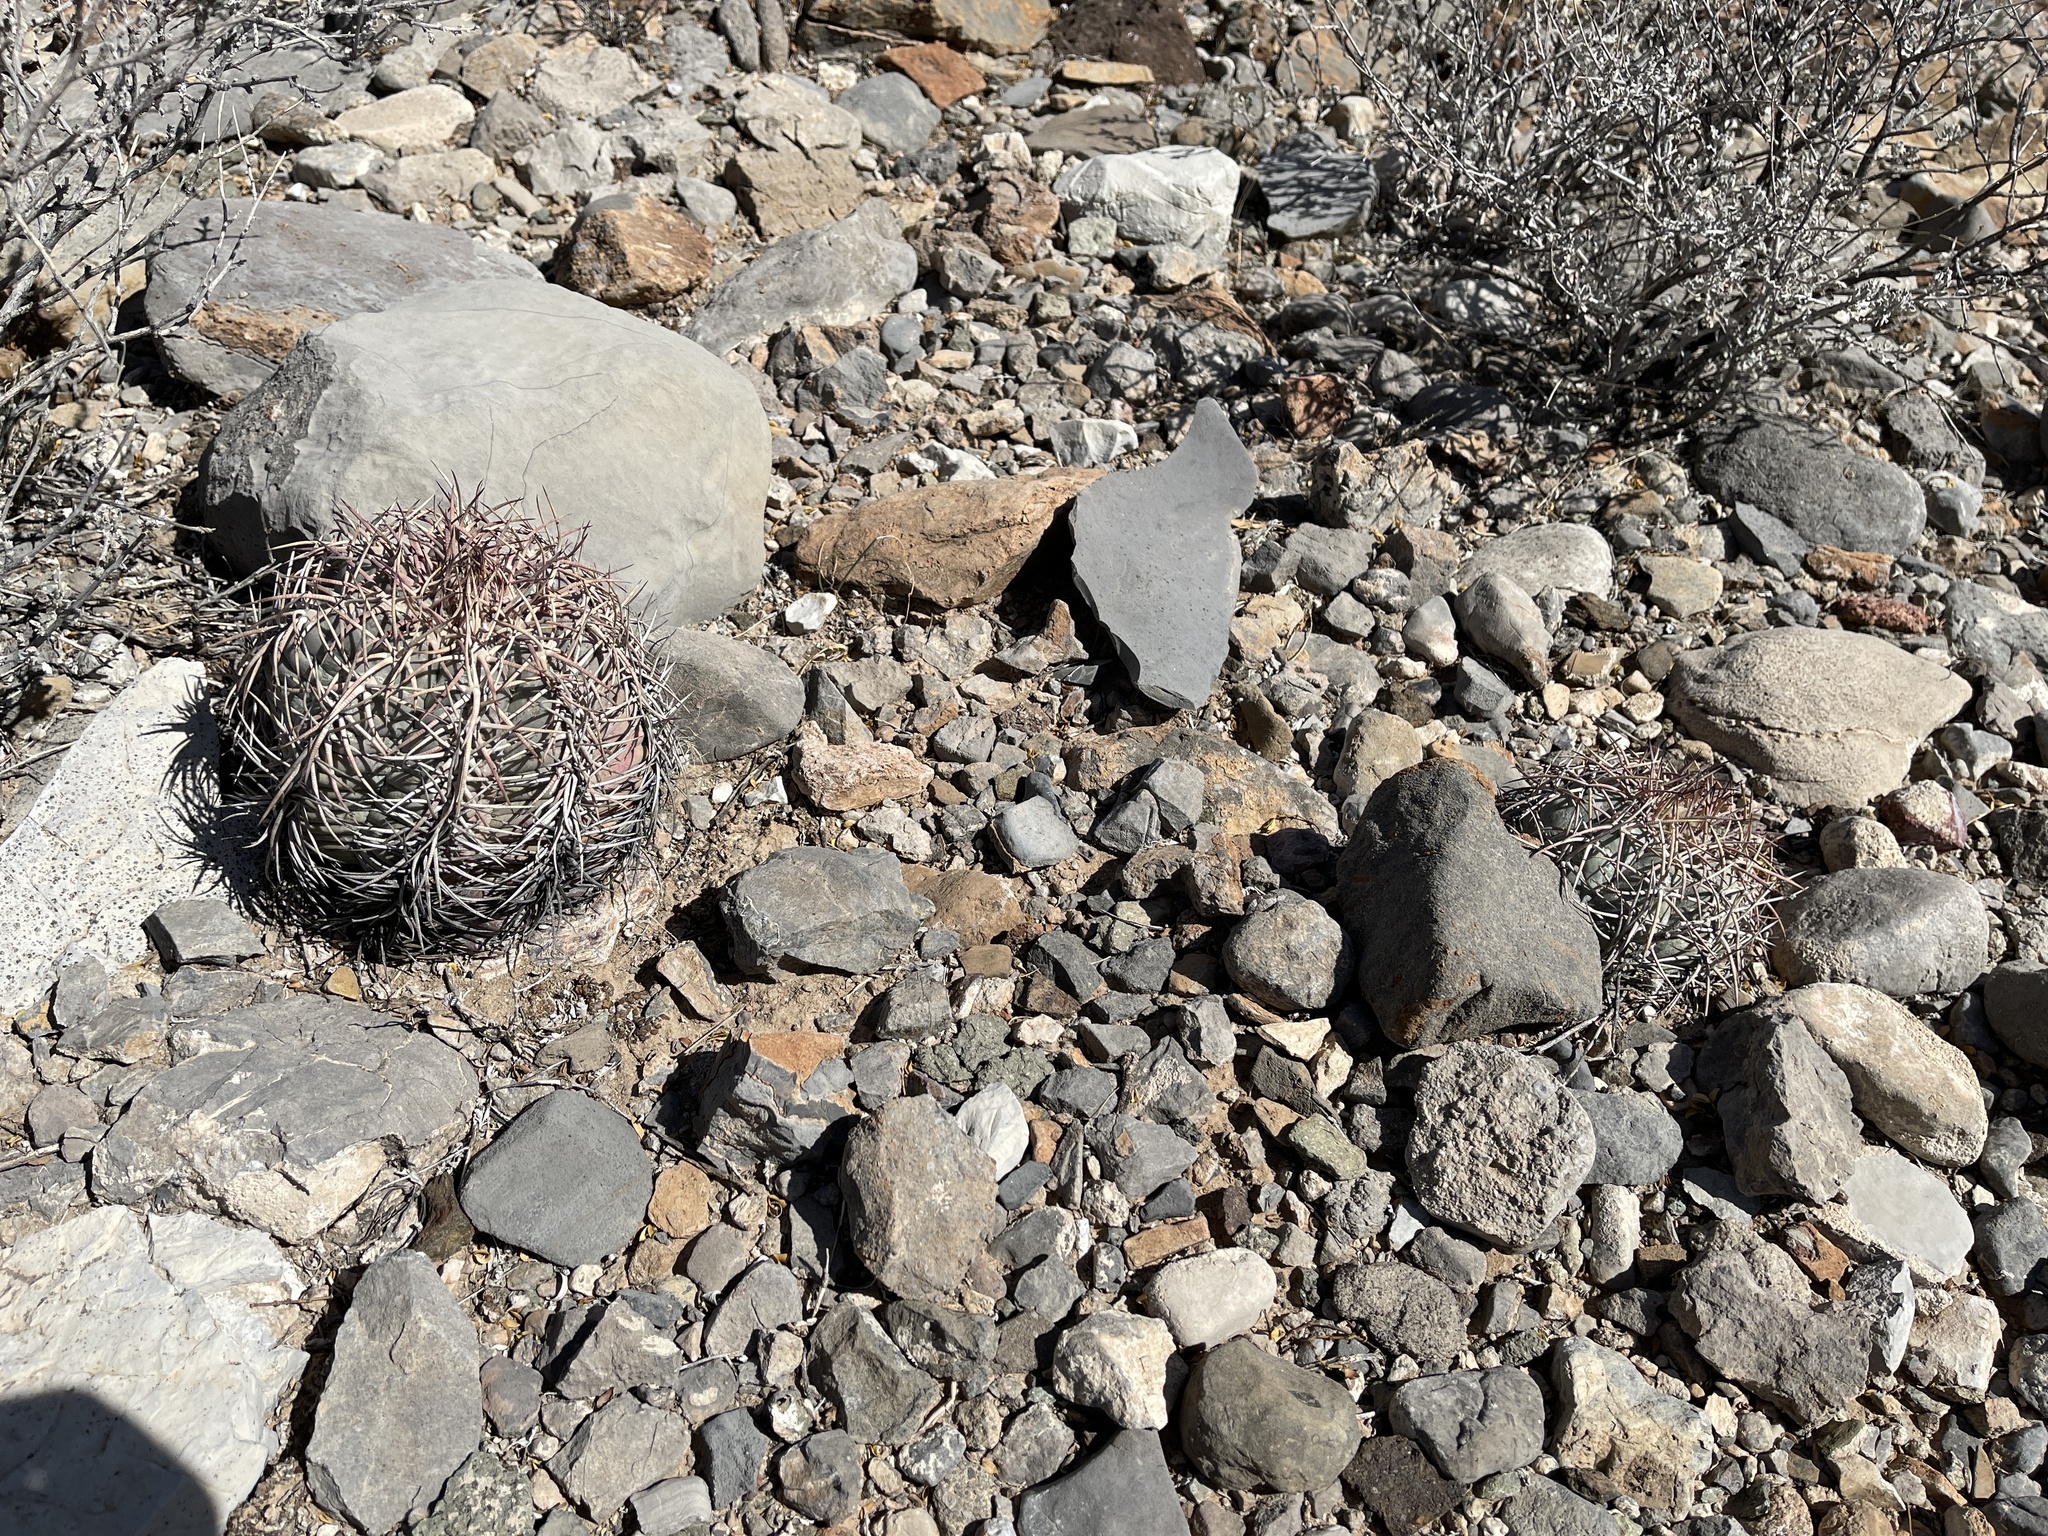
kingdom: Plantae
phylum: Tracheophyta
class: Magnoliopsida
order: Caryophyllales
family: Cactaceae
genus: Echinocactus
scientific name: Echinocactus horizonthalonius
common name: Devilshead
